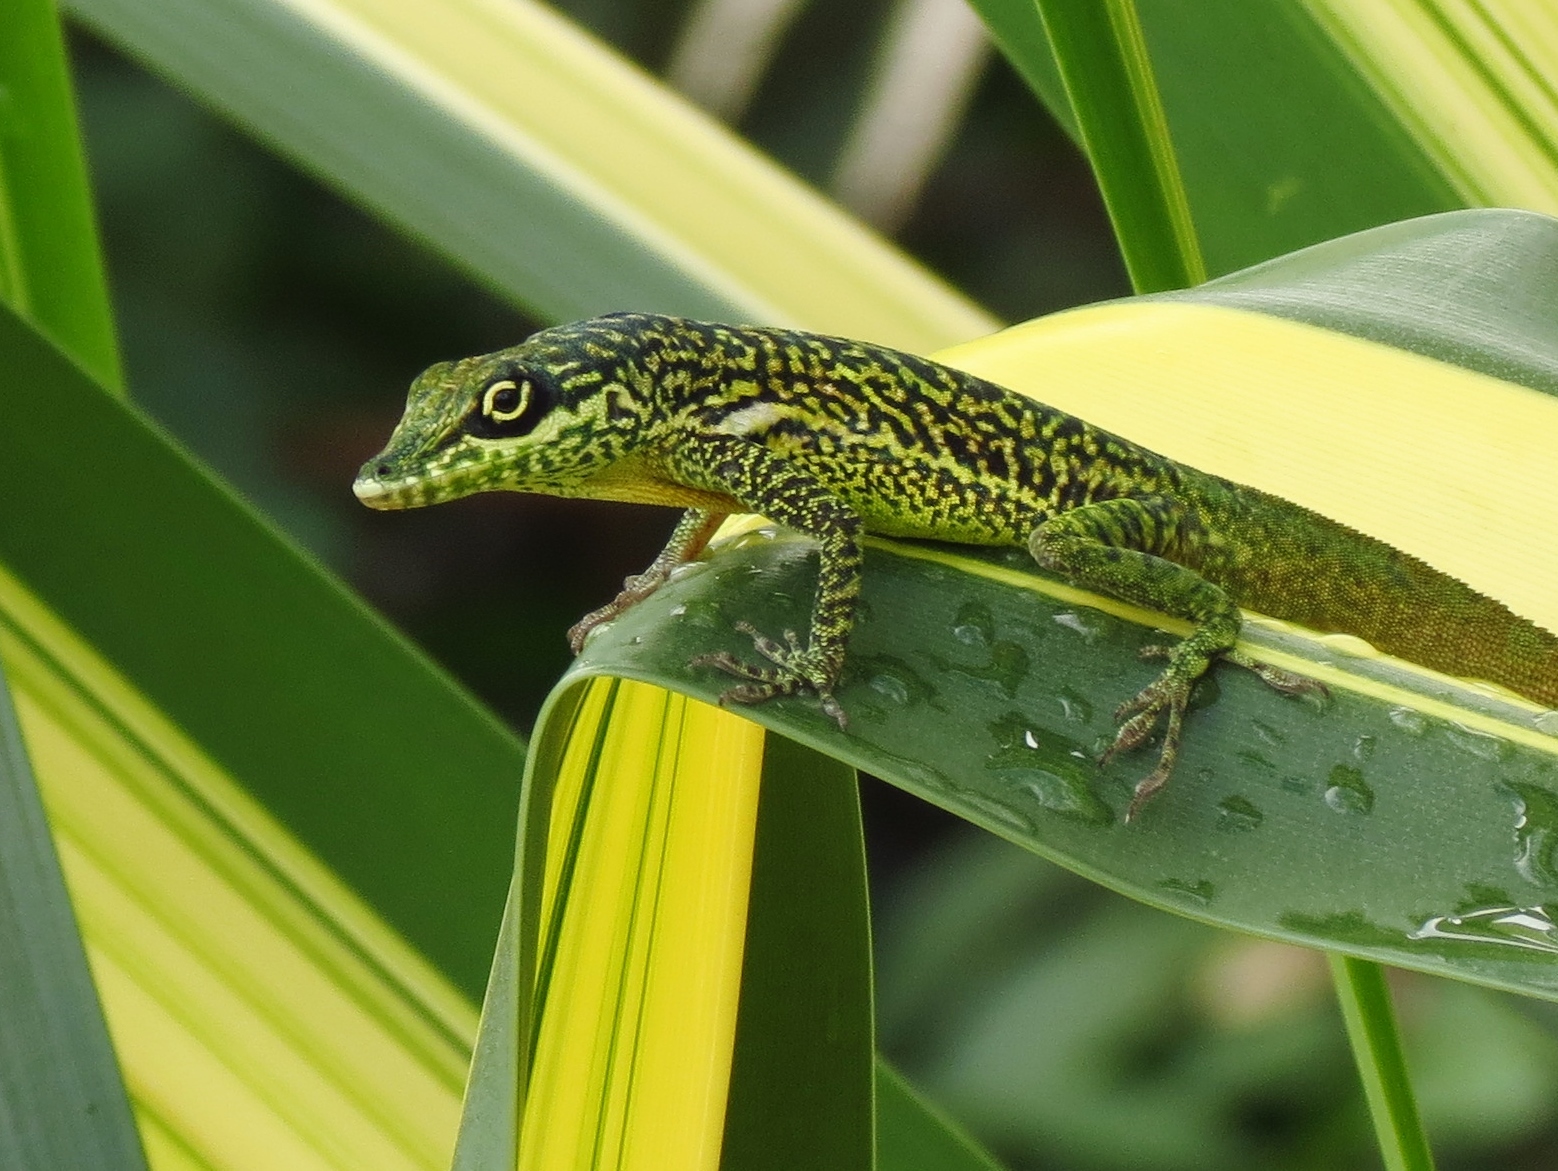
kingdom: Animalia
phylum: Chordata
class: Squamata
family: Dactyloidae
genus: Anolis
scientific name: Anolis roquet
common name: Martinique anole
